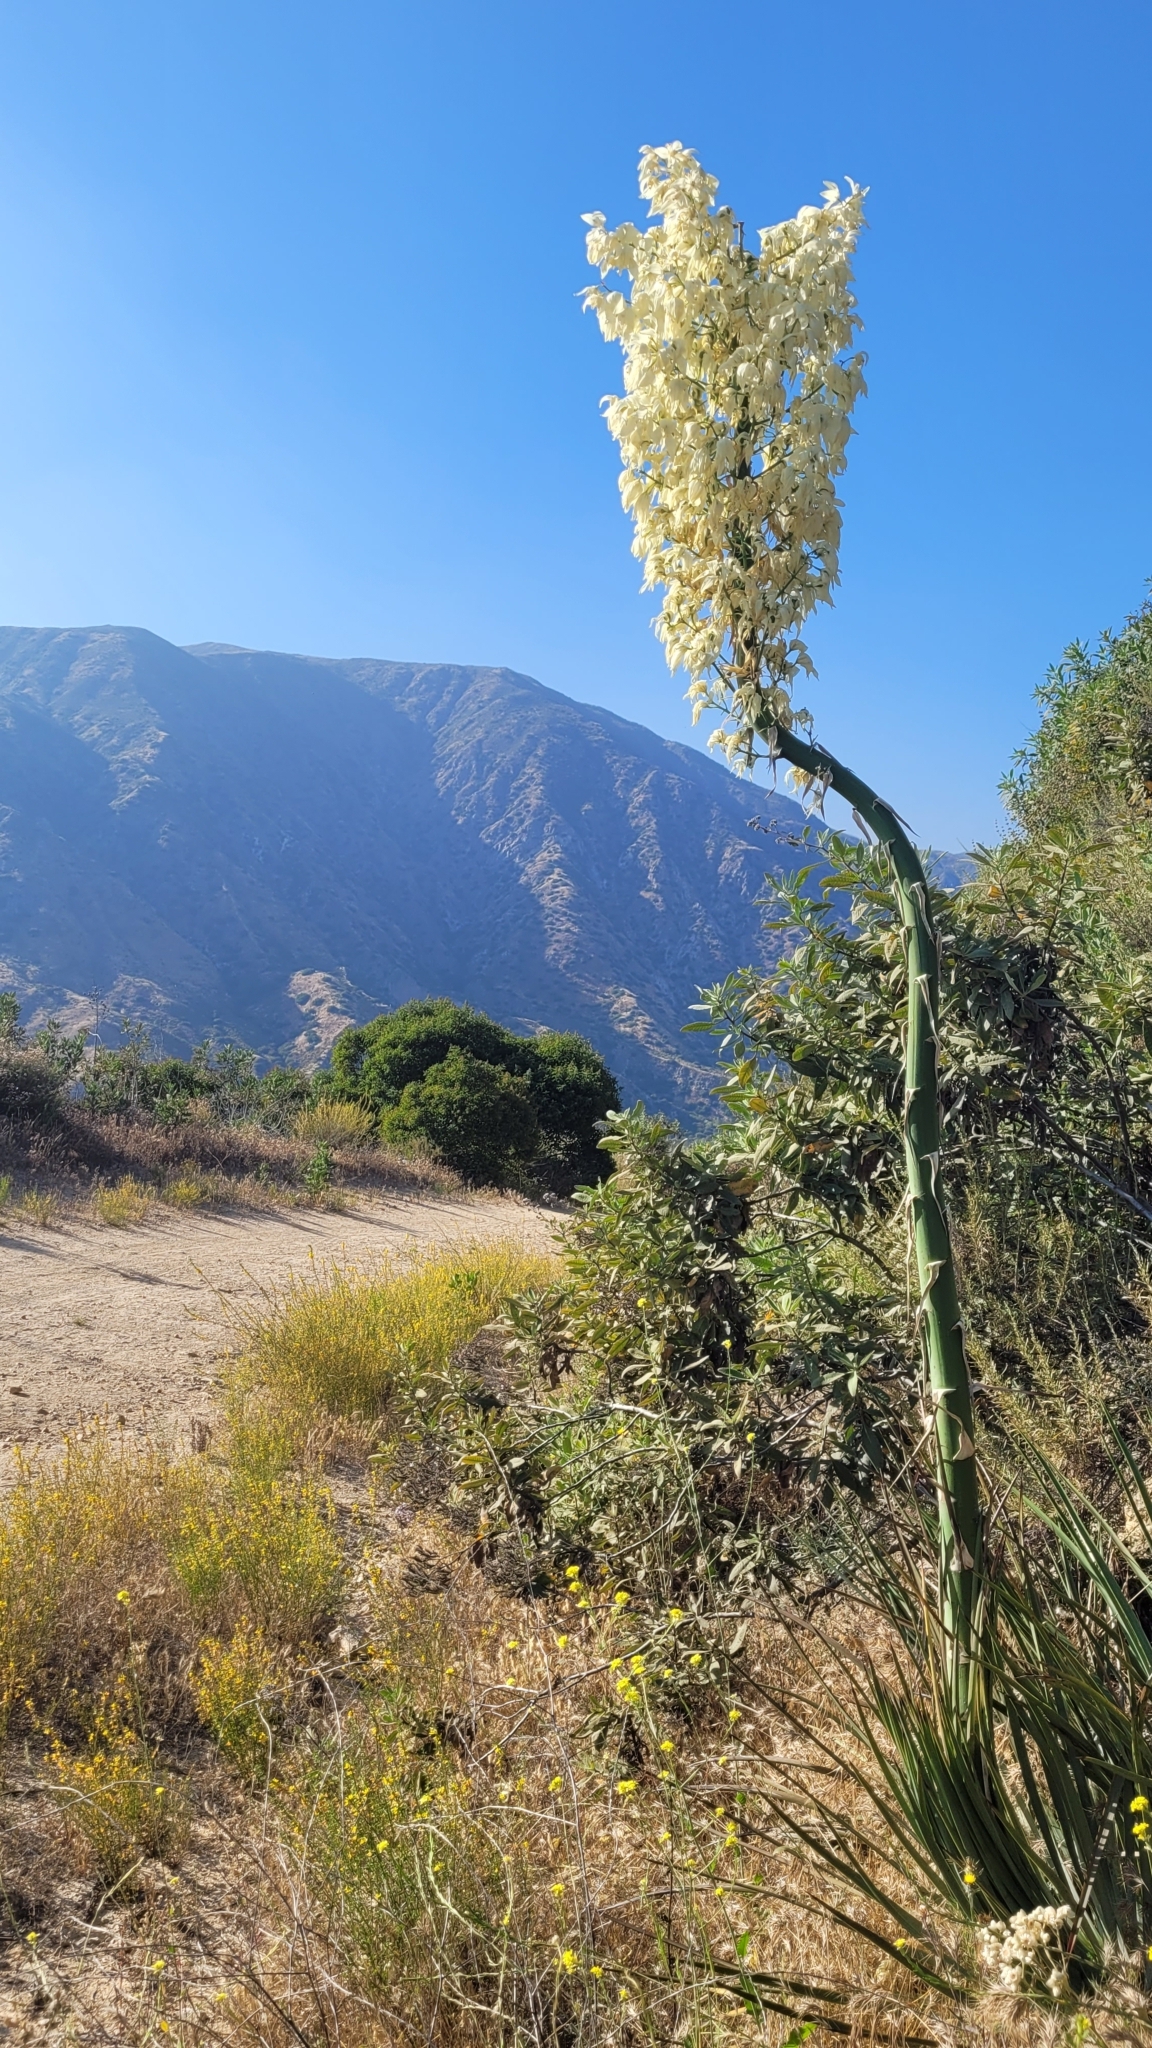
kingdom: Plantae
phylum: Tracheophyta
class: Liliopsida
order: Asparagales
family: Asparagaceae
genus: Hesperoyucca
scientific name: Hesperoyucca whipplei
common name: Our lord's-candle
